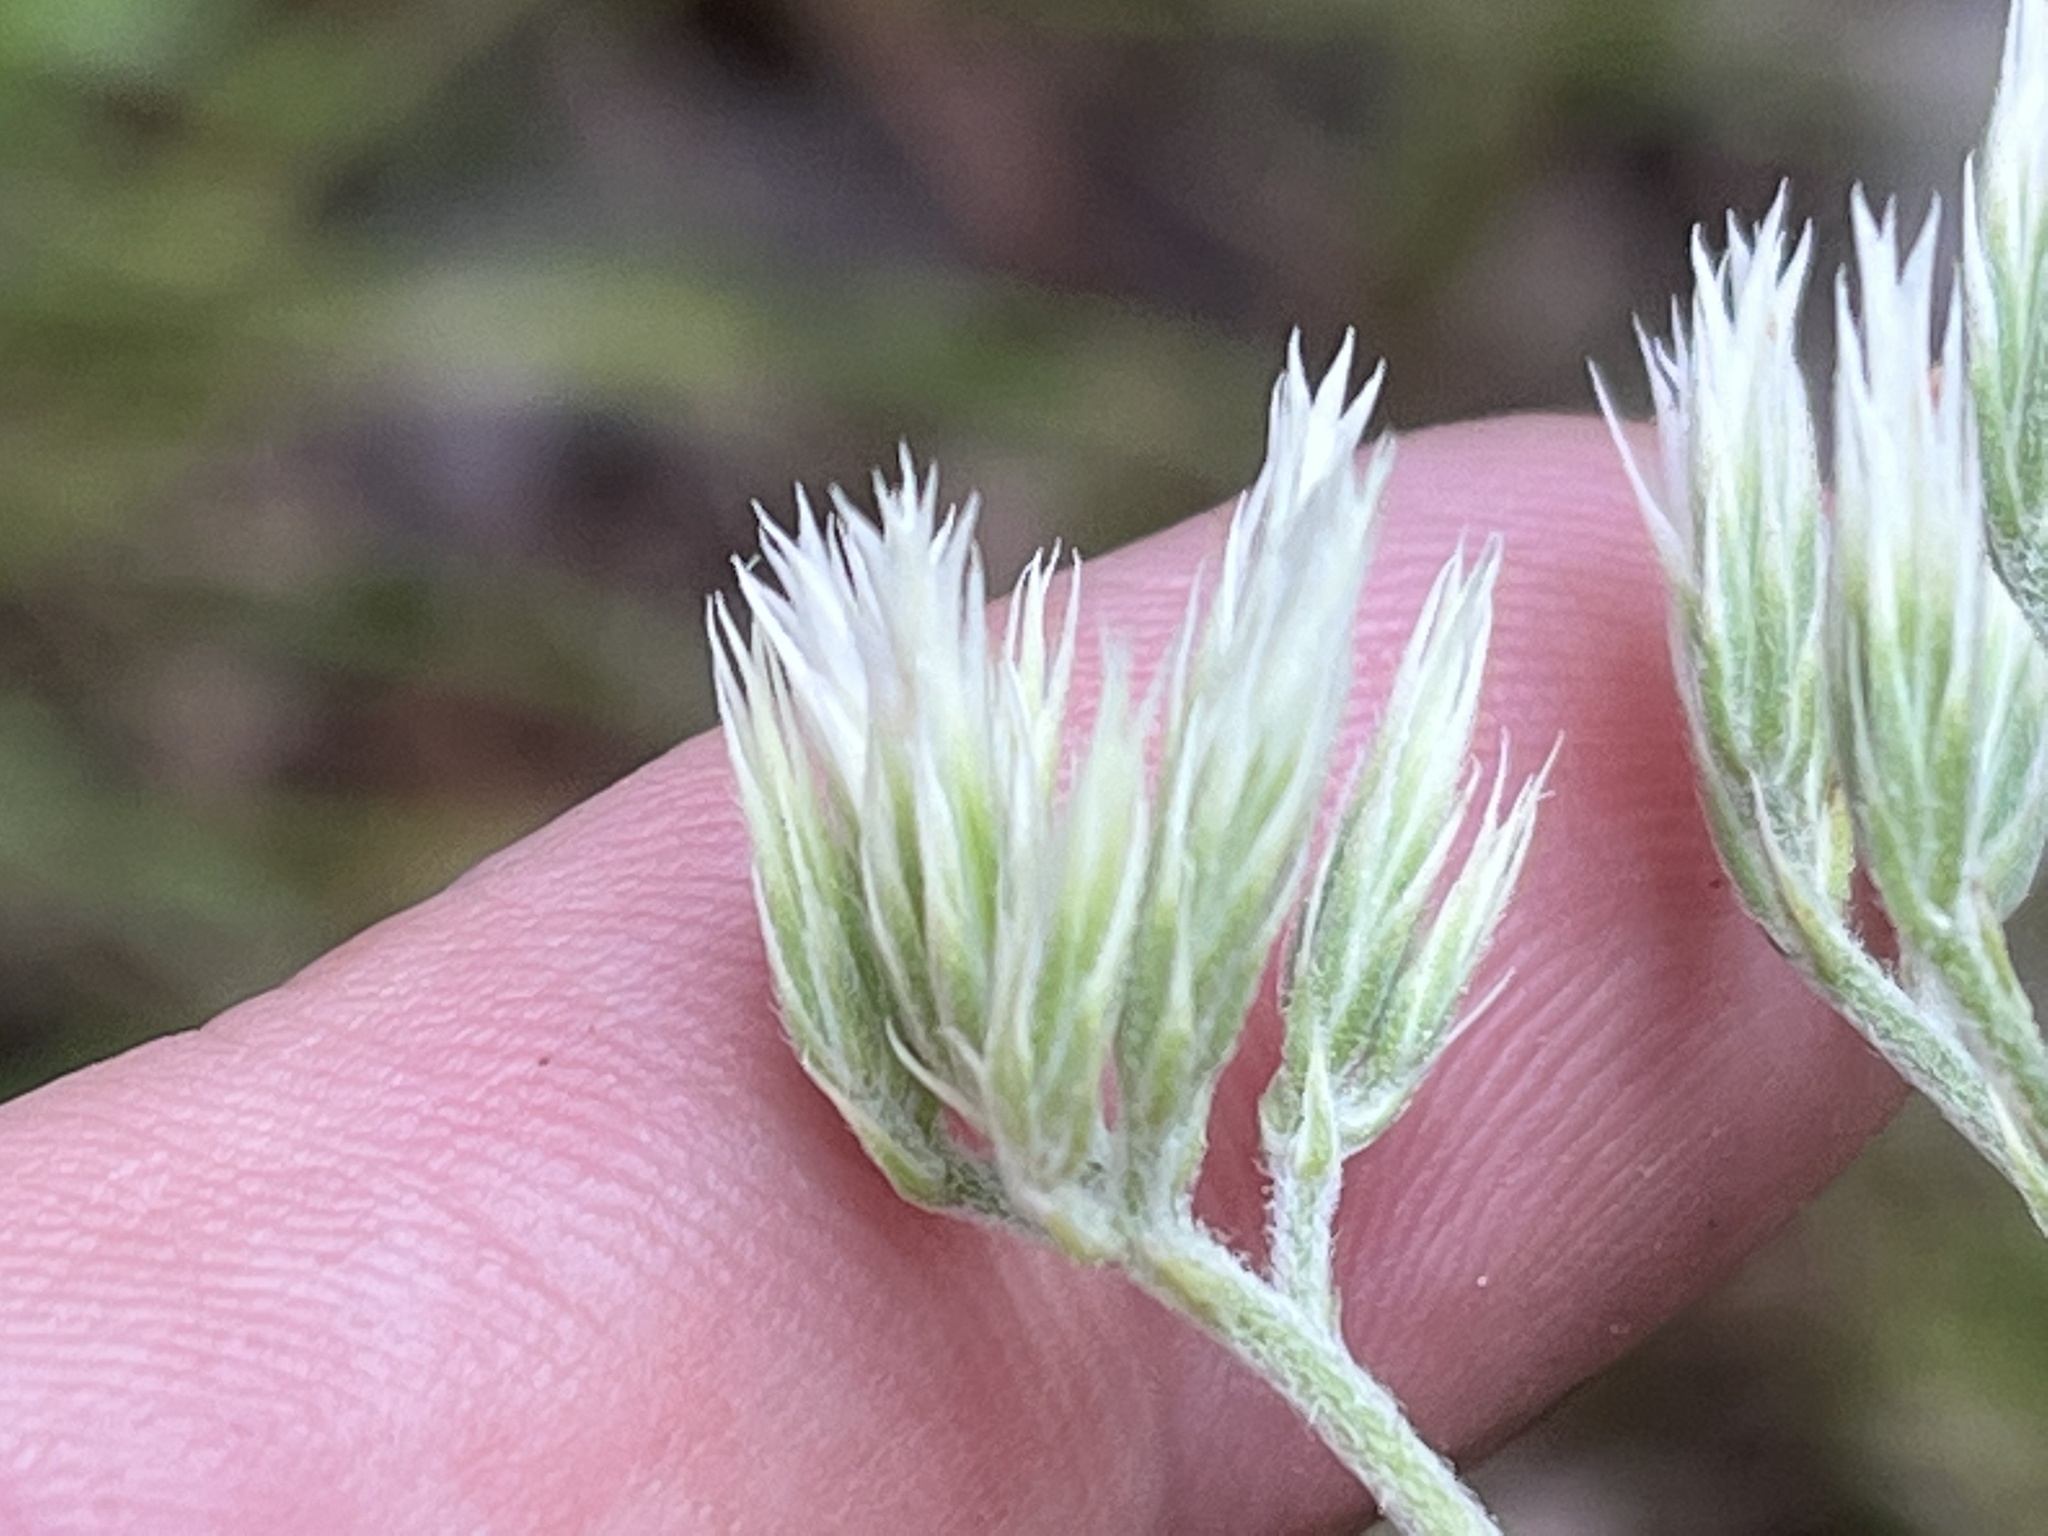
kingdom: Plantae
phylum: Tracheophyta
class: Magnoliopsida
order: Asterales
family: Asteraceae
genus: Eupatorium
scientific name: Eupatorium album
